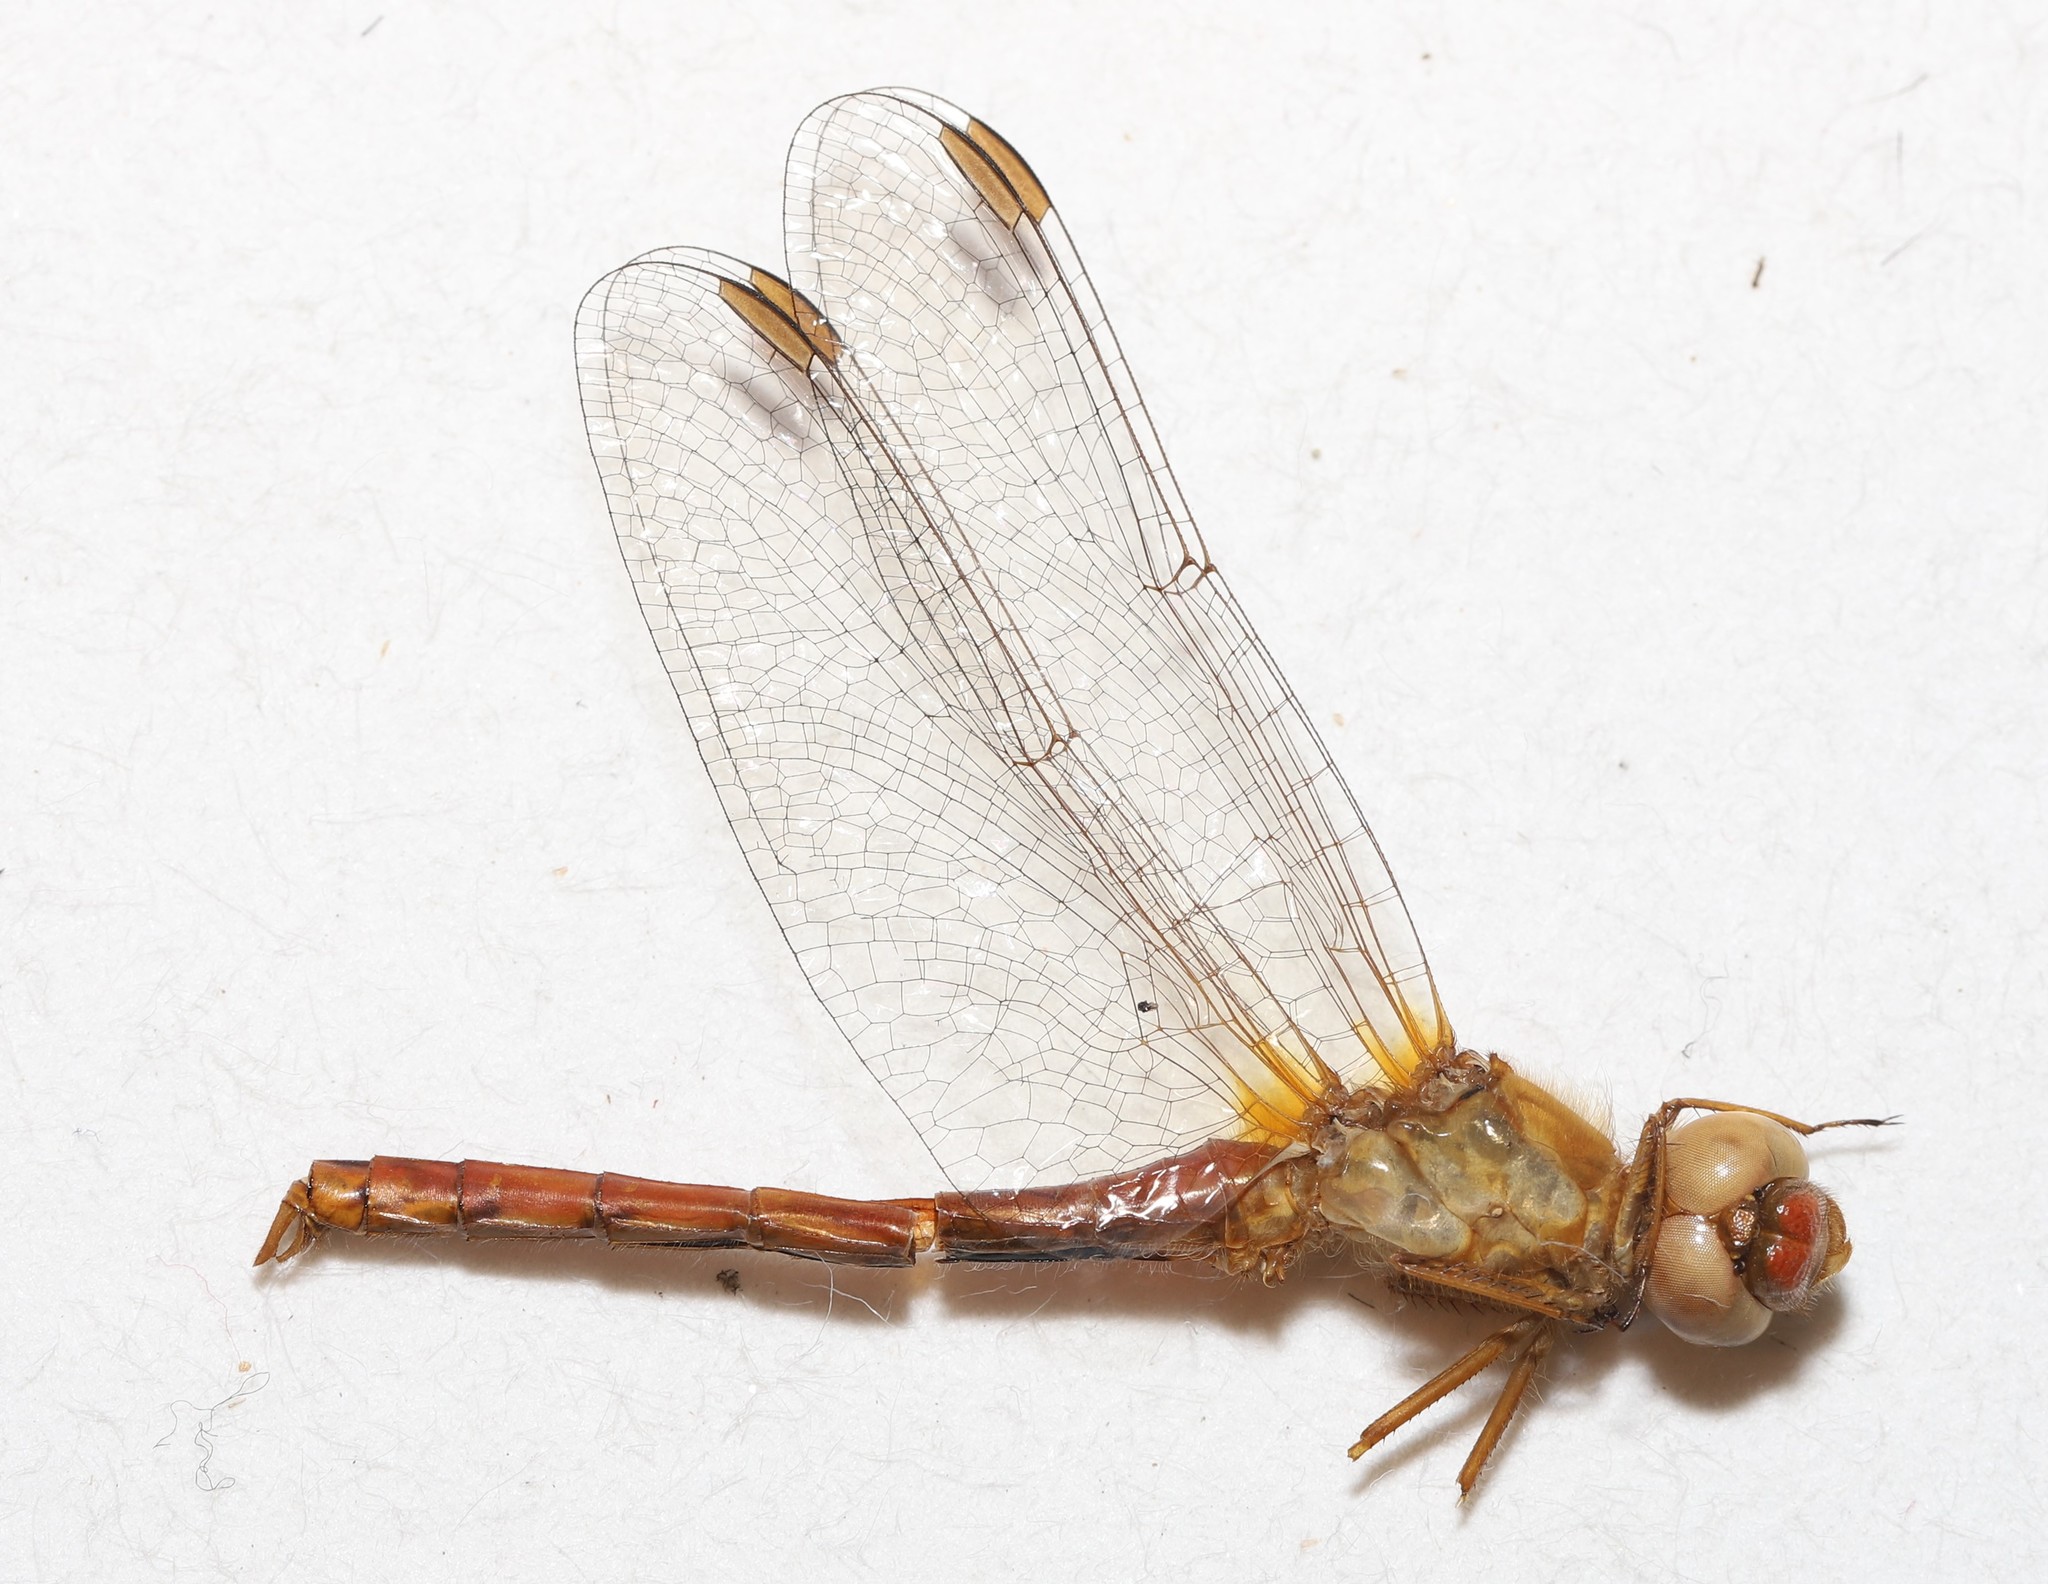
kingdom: Animalia
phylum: Arthropoda
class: Insecta
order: Odonata
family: Libellulidae
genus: Sympetrum
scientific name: Sympetrum vicinum
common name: Autumn meadowhawk
